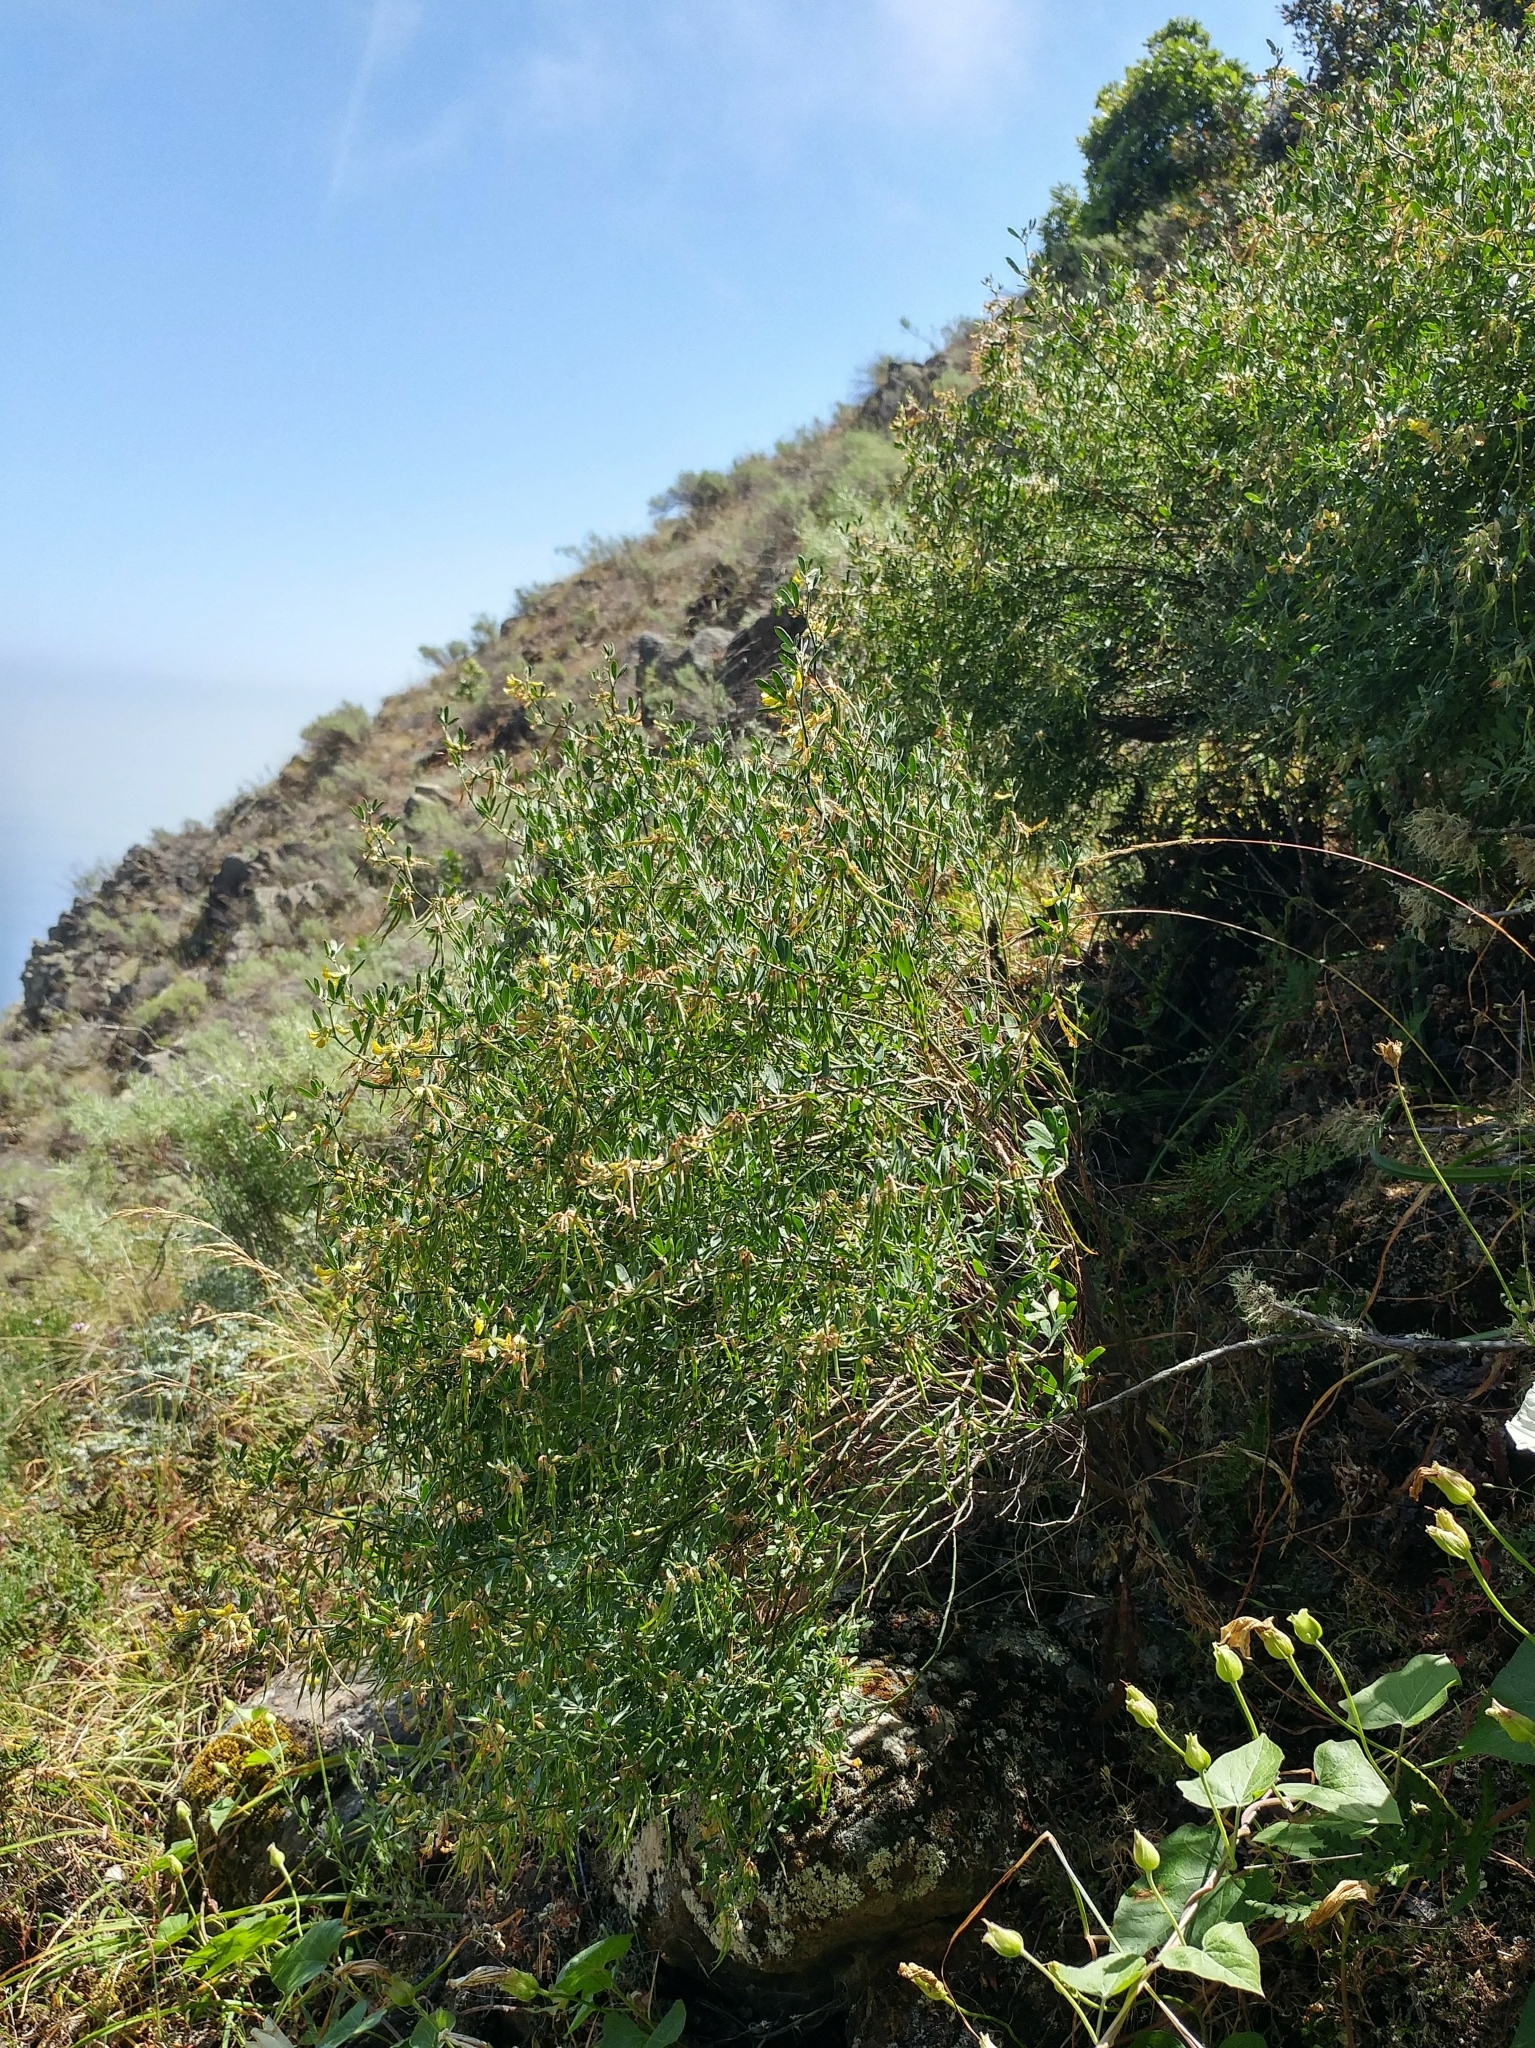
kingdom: Plantae
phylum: Tracheophyta
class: Magnoliopsida
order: Fabales
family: Fabaceae
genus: Acmispon
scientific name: Acmispon dendroideus
